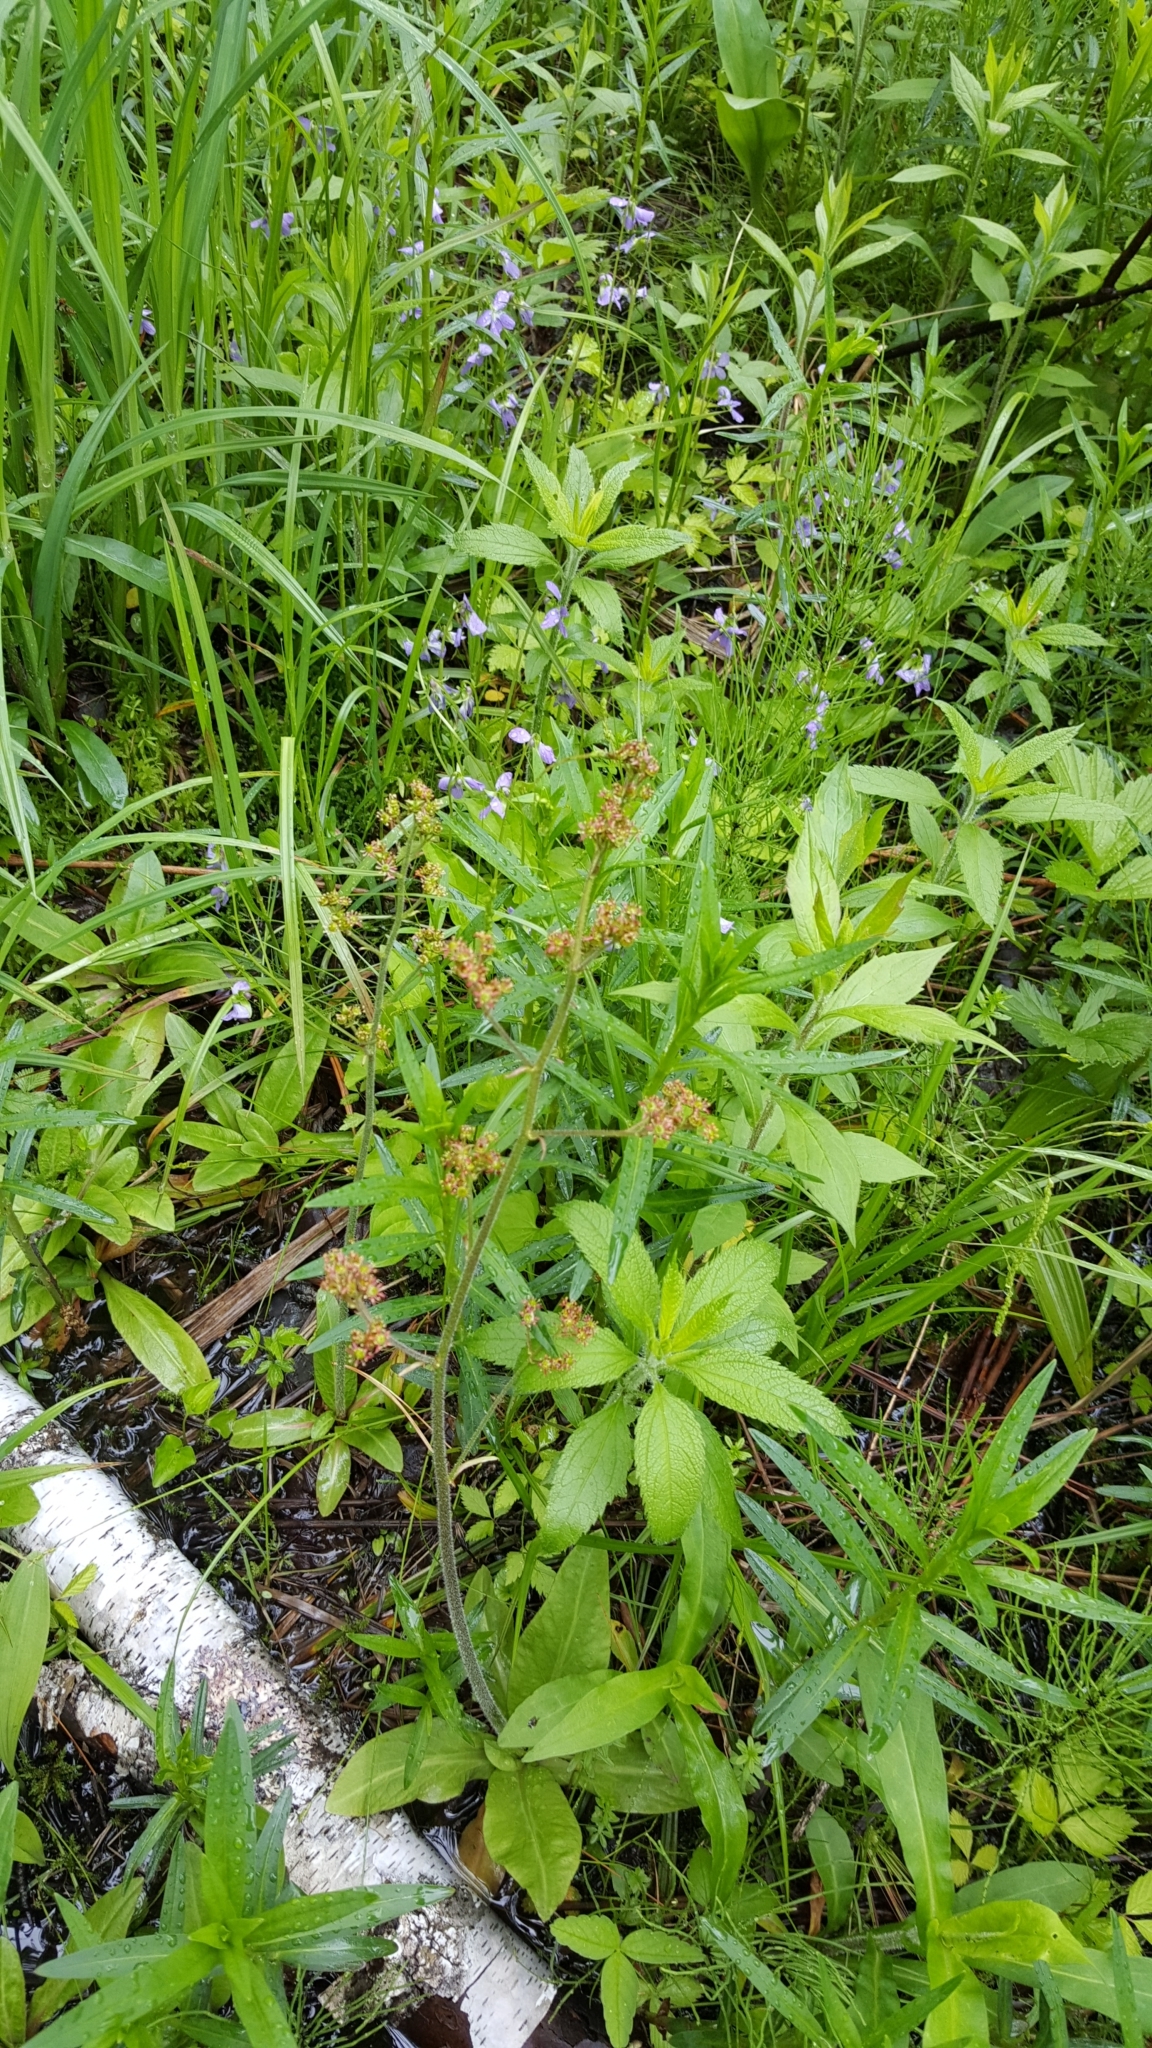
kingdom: Plantae
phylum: Tracheophyta
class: Magnoliopsida
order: Saxifragales
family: Saxifragaceae
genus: Micranthes
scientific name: Micranthes pensylvanica
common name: Marsh saxifrage
